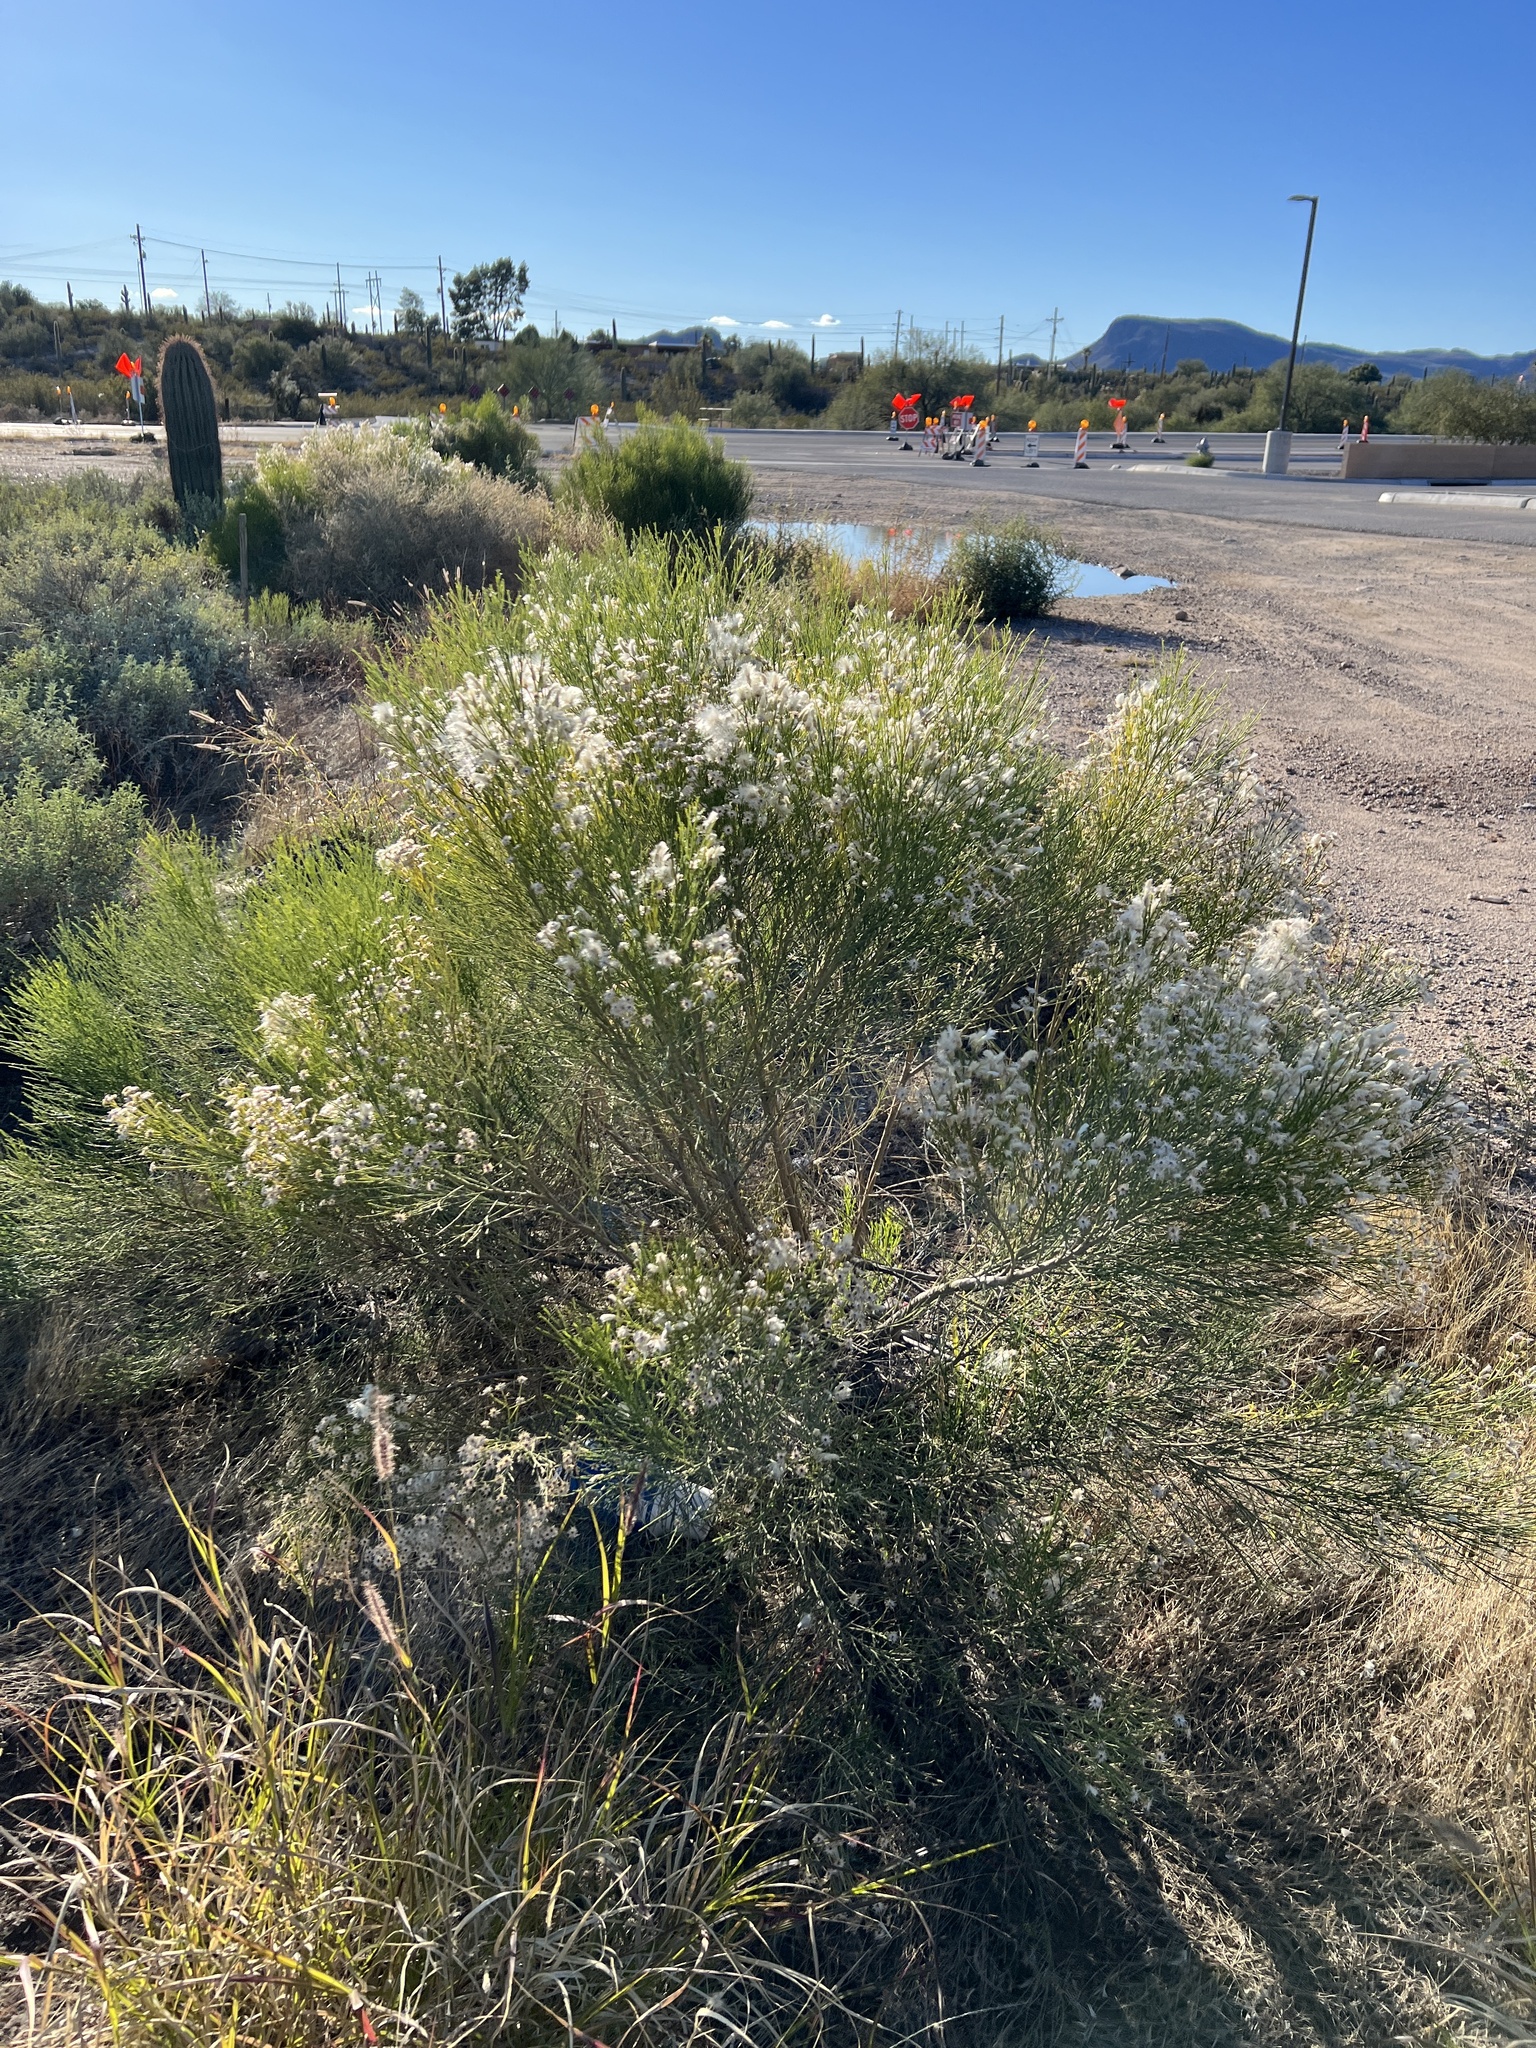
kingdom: Plantae
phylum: Tracheophyta
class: Magnoliopsida
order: Asterales
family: Asteraceae
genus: Baccharis
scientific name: Baccharis sarothroides
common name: Desert-broom
